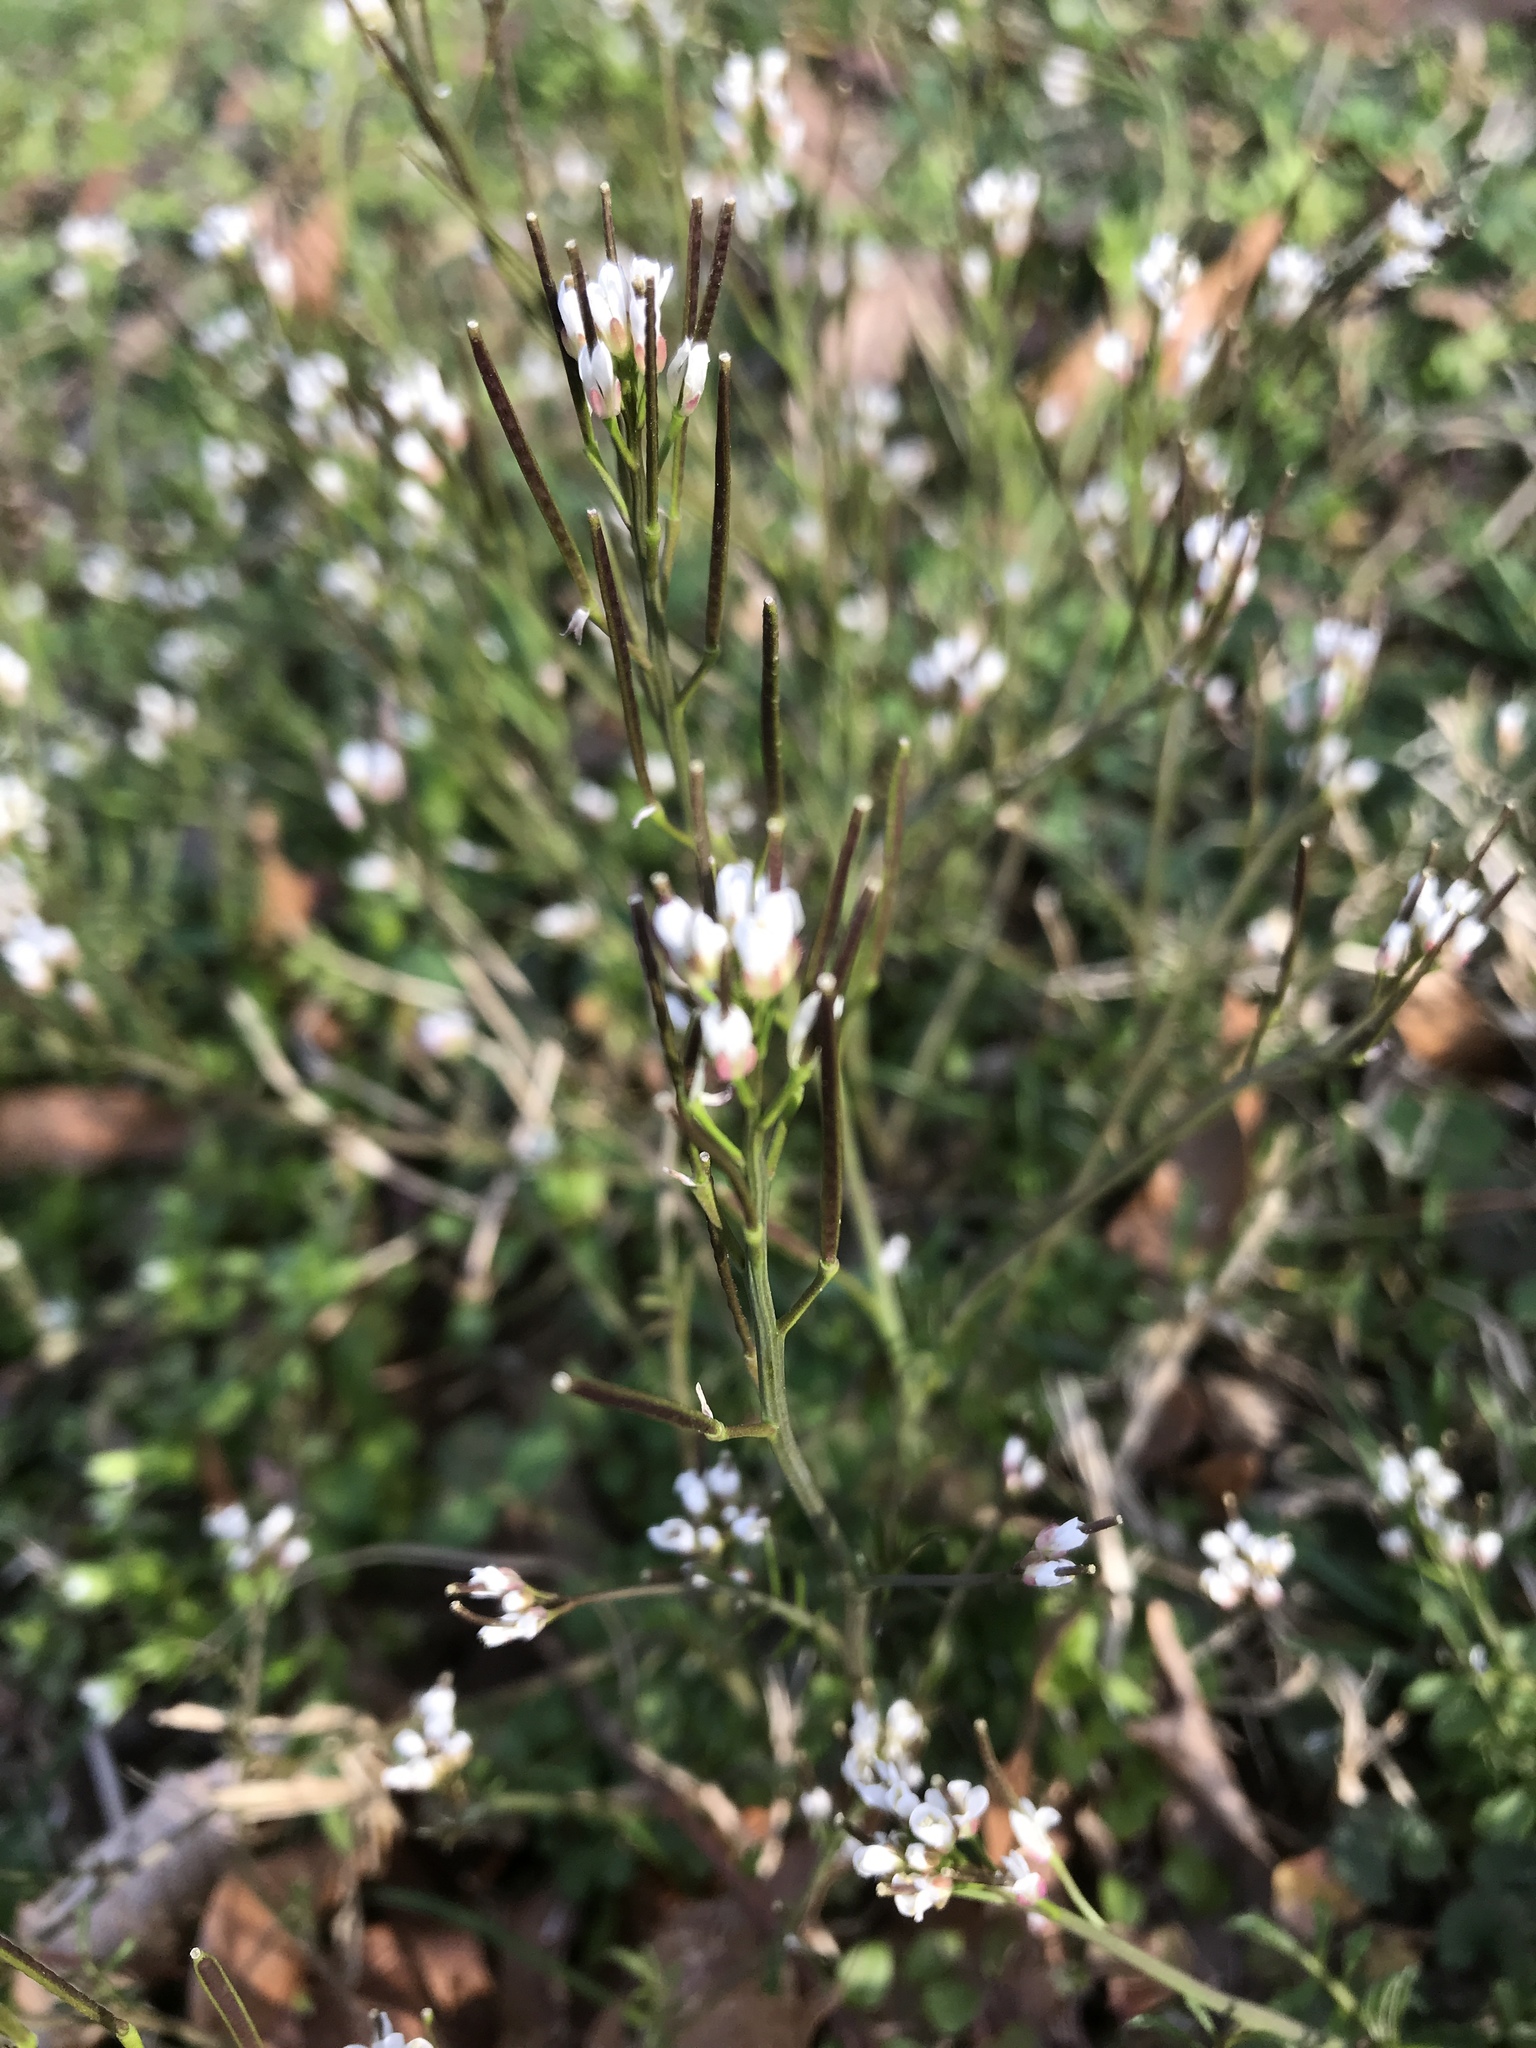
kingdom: Plantae
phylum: Tracheophyta
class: Magnoliopsida
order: Brassicales
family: Brassicaceae
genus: Cardamine
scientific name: Cardamine hirsuta
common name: Hairy bittercress
